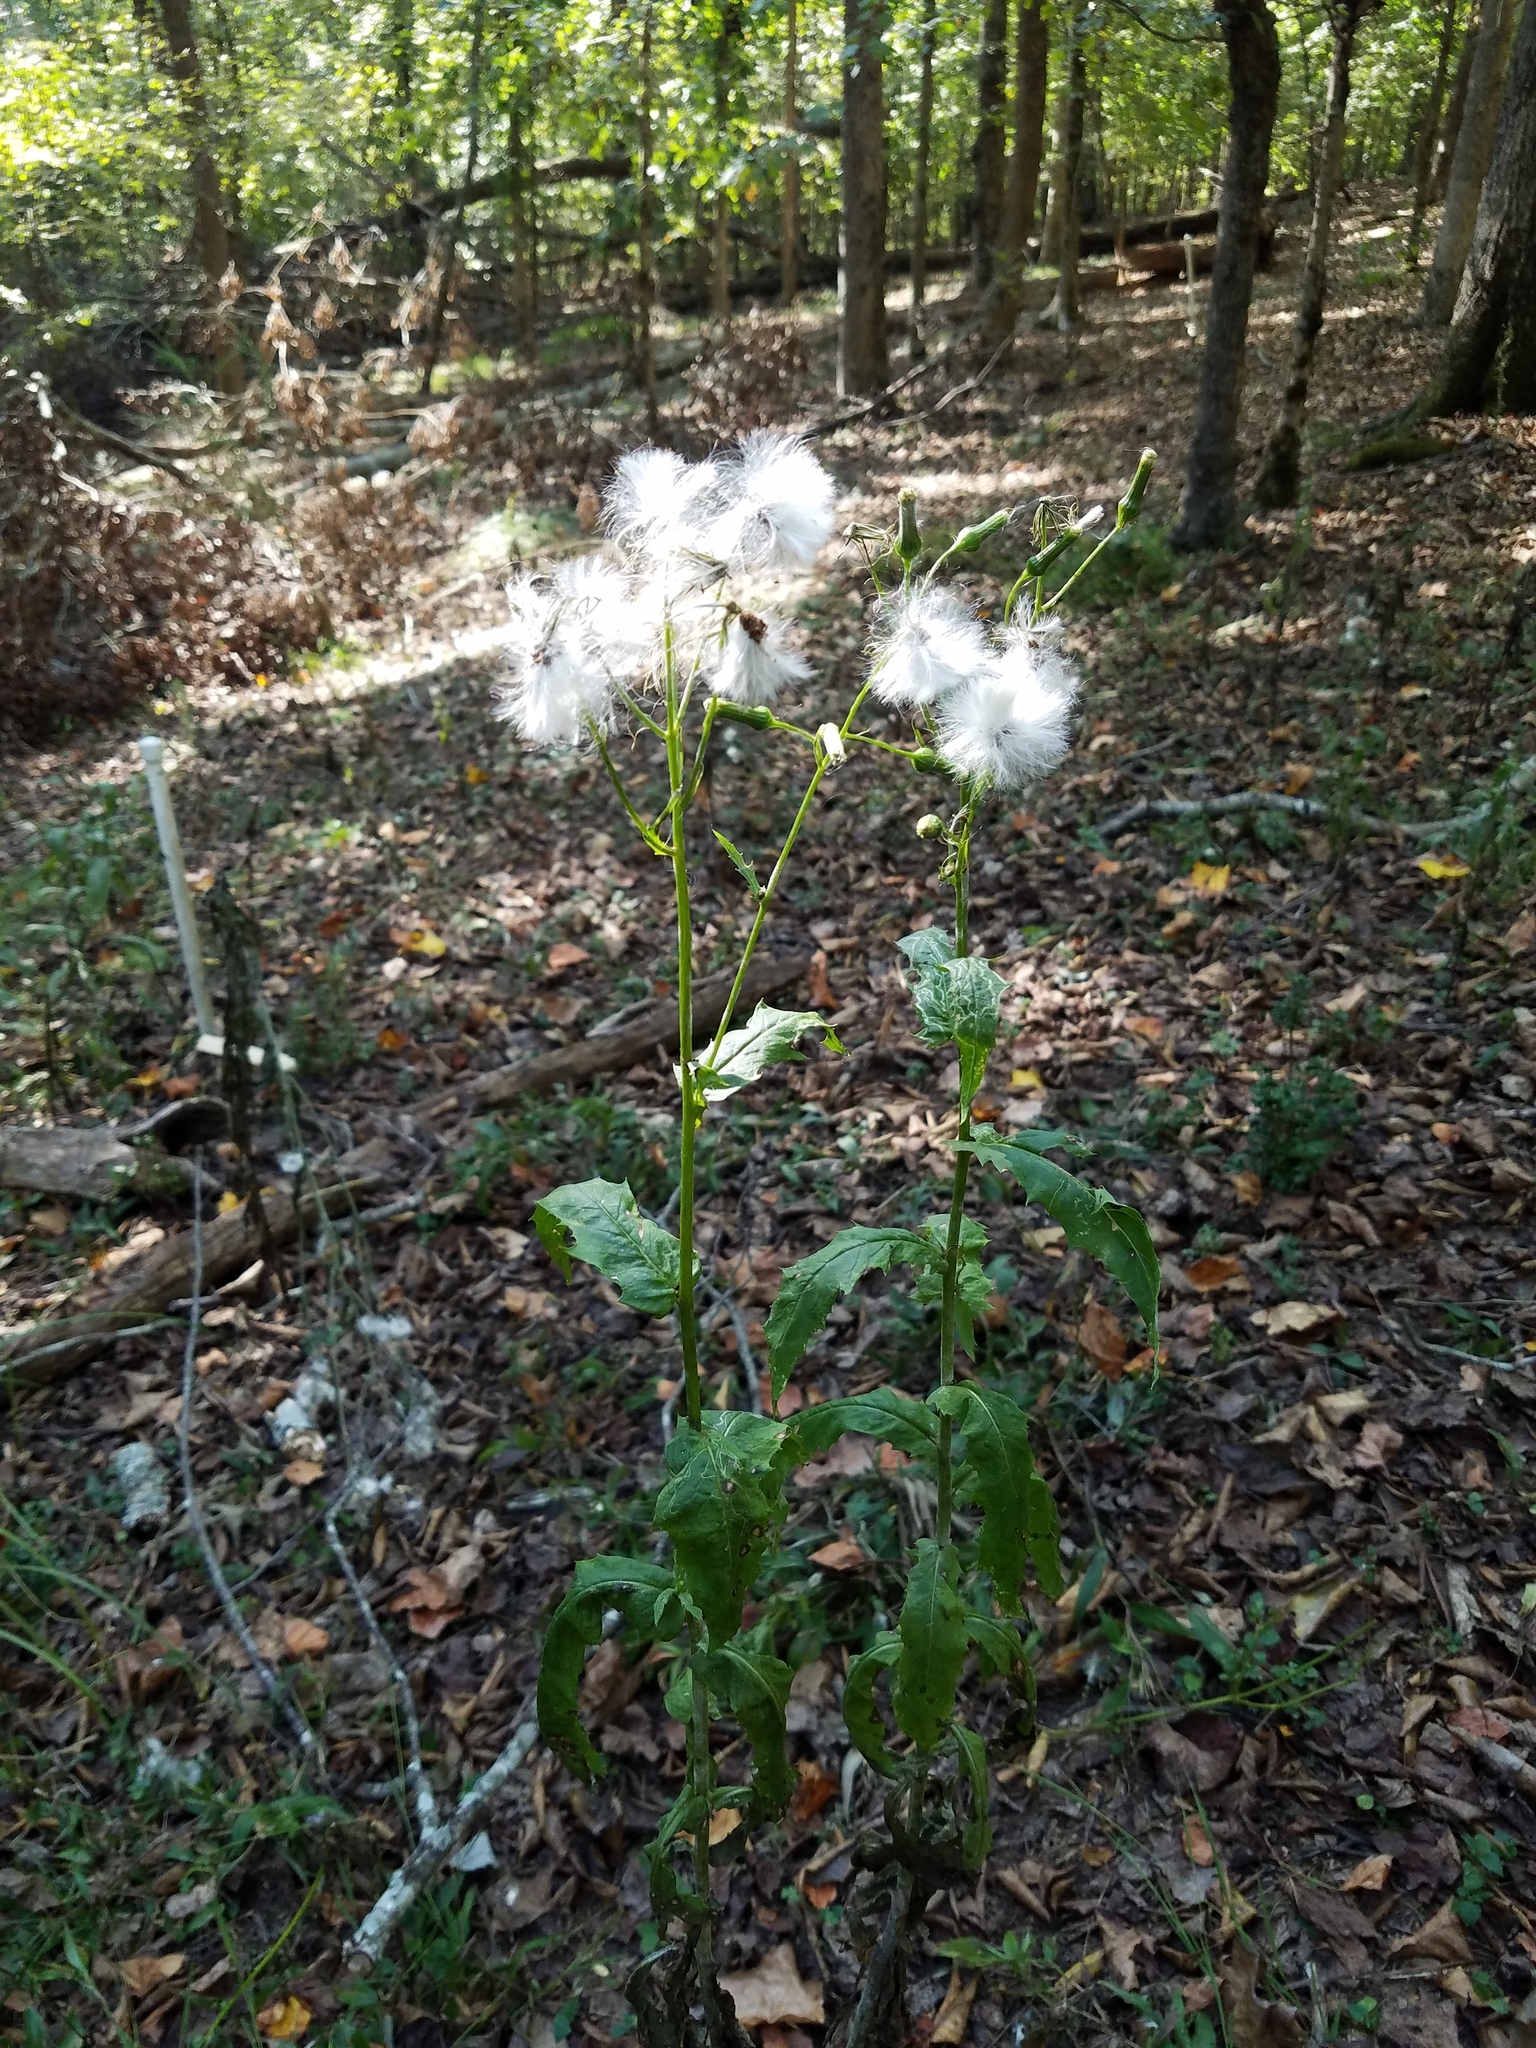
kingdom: Plantae
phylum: Tracheophyta
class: Magnoliopsida
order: Asterales
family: Asteraceae
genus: Erechtites
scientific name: Erechtites hieraciifolius
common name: American burnweed
